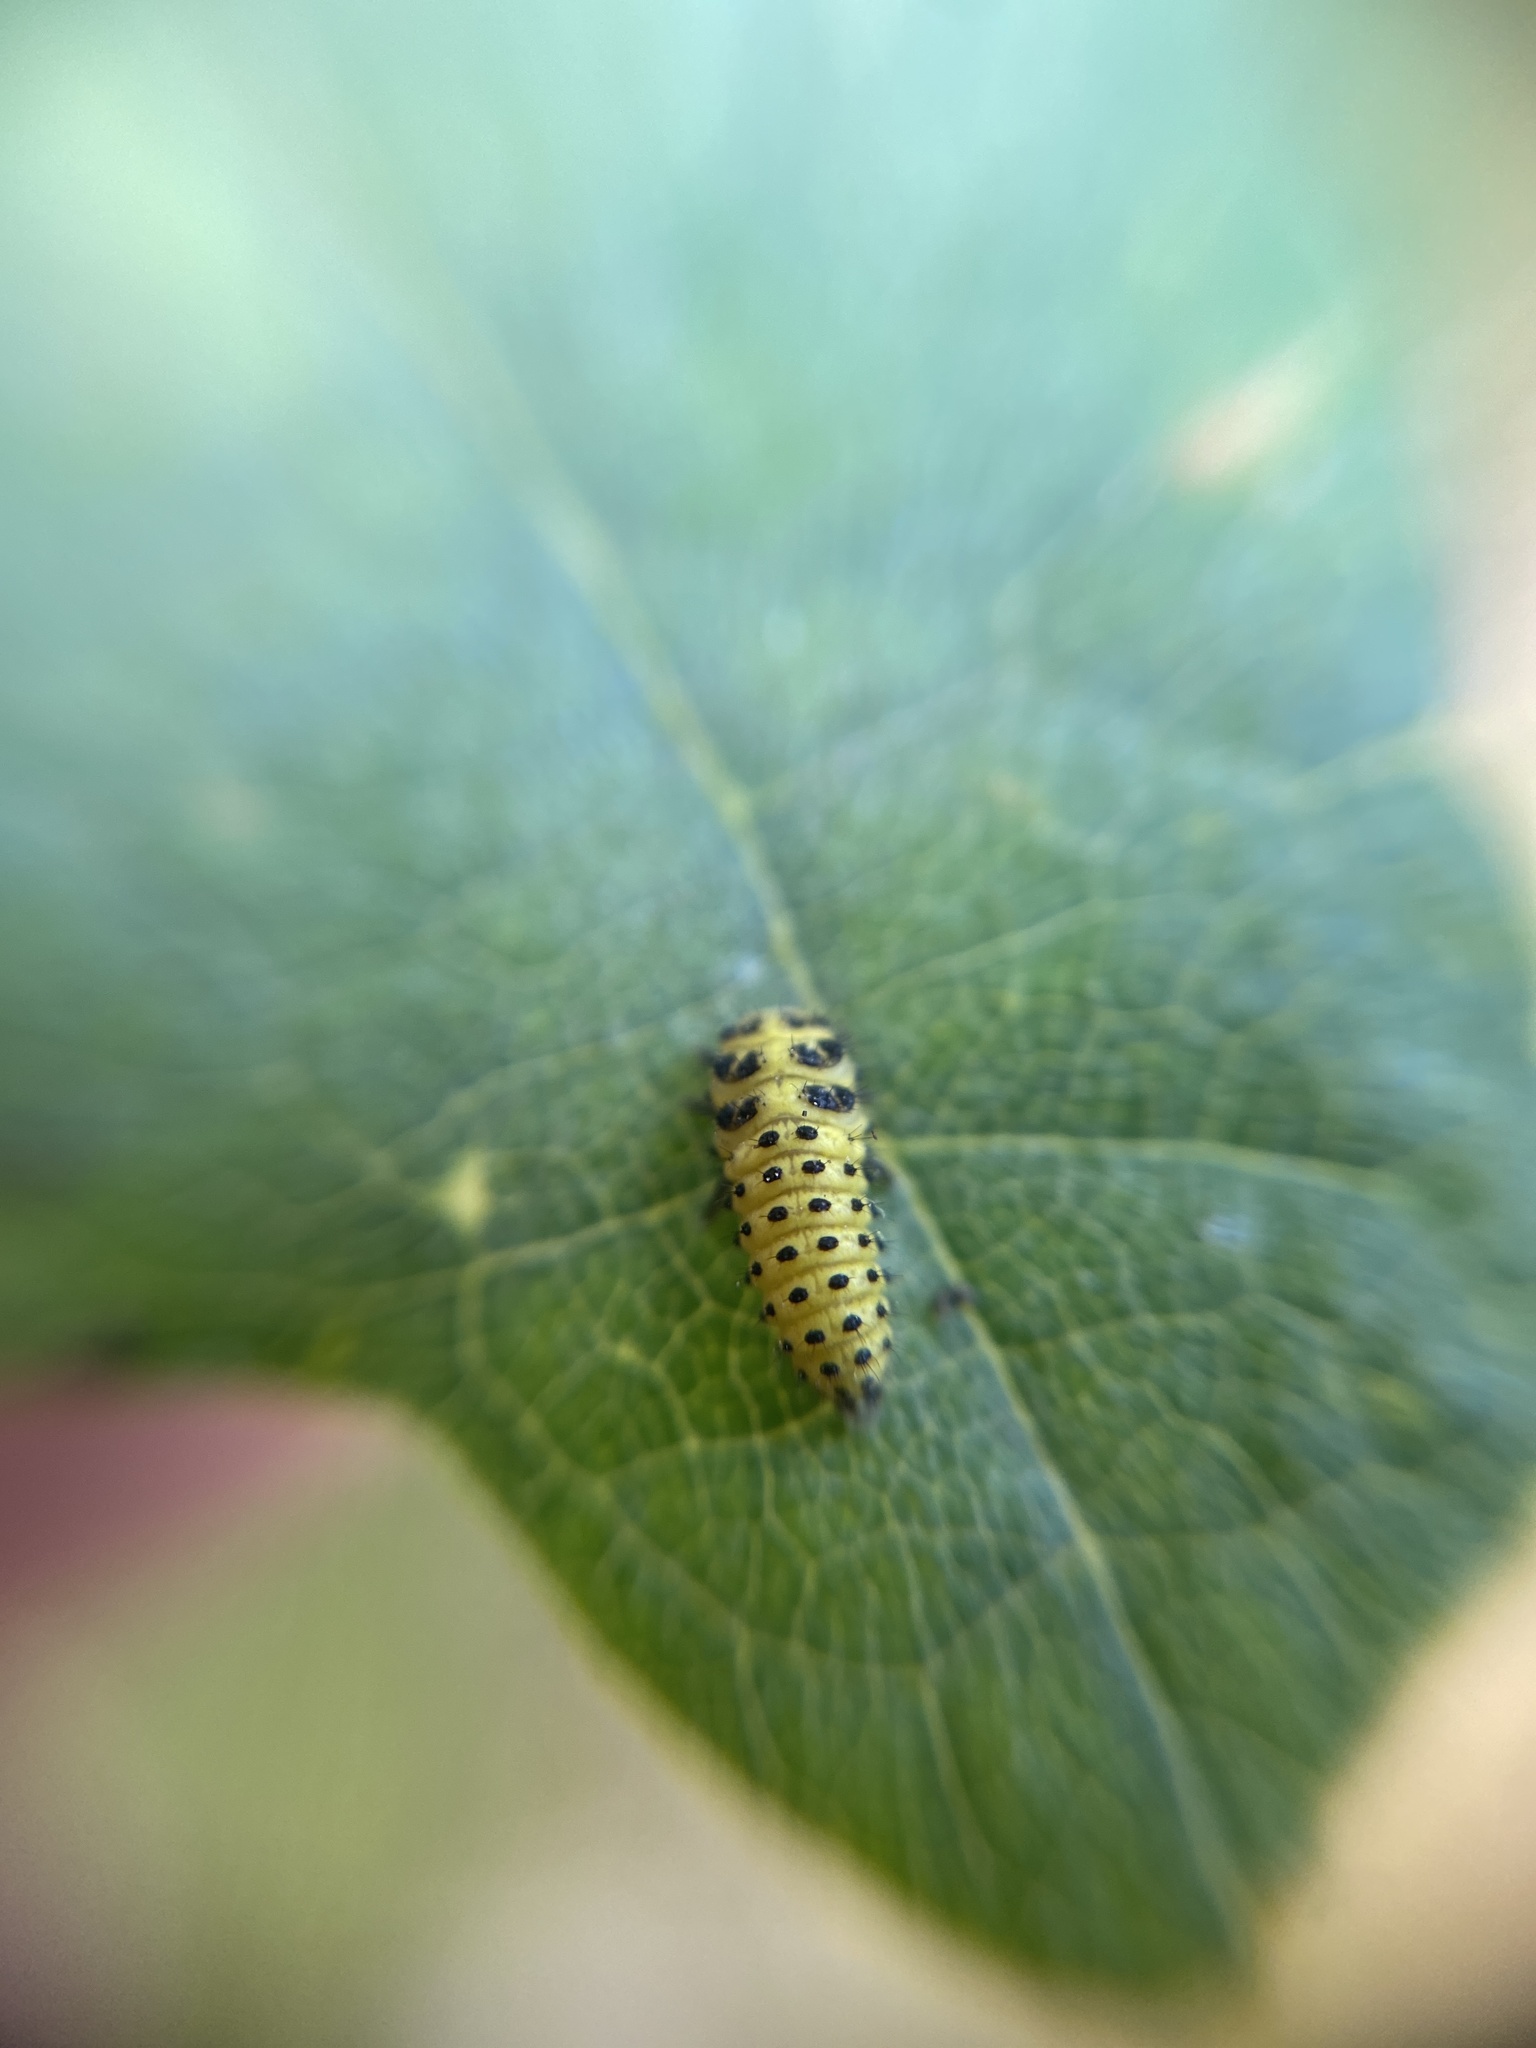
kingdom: Animalia
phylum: Arthropoda
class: Insecta
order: Coleoptera
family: Coccinellidae
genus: Psyllobora
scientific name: Psyllobora vigintiduopunctata
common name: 22-spot ladybird
